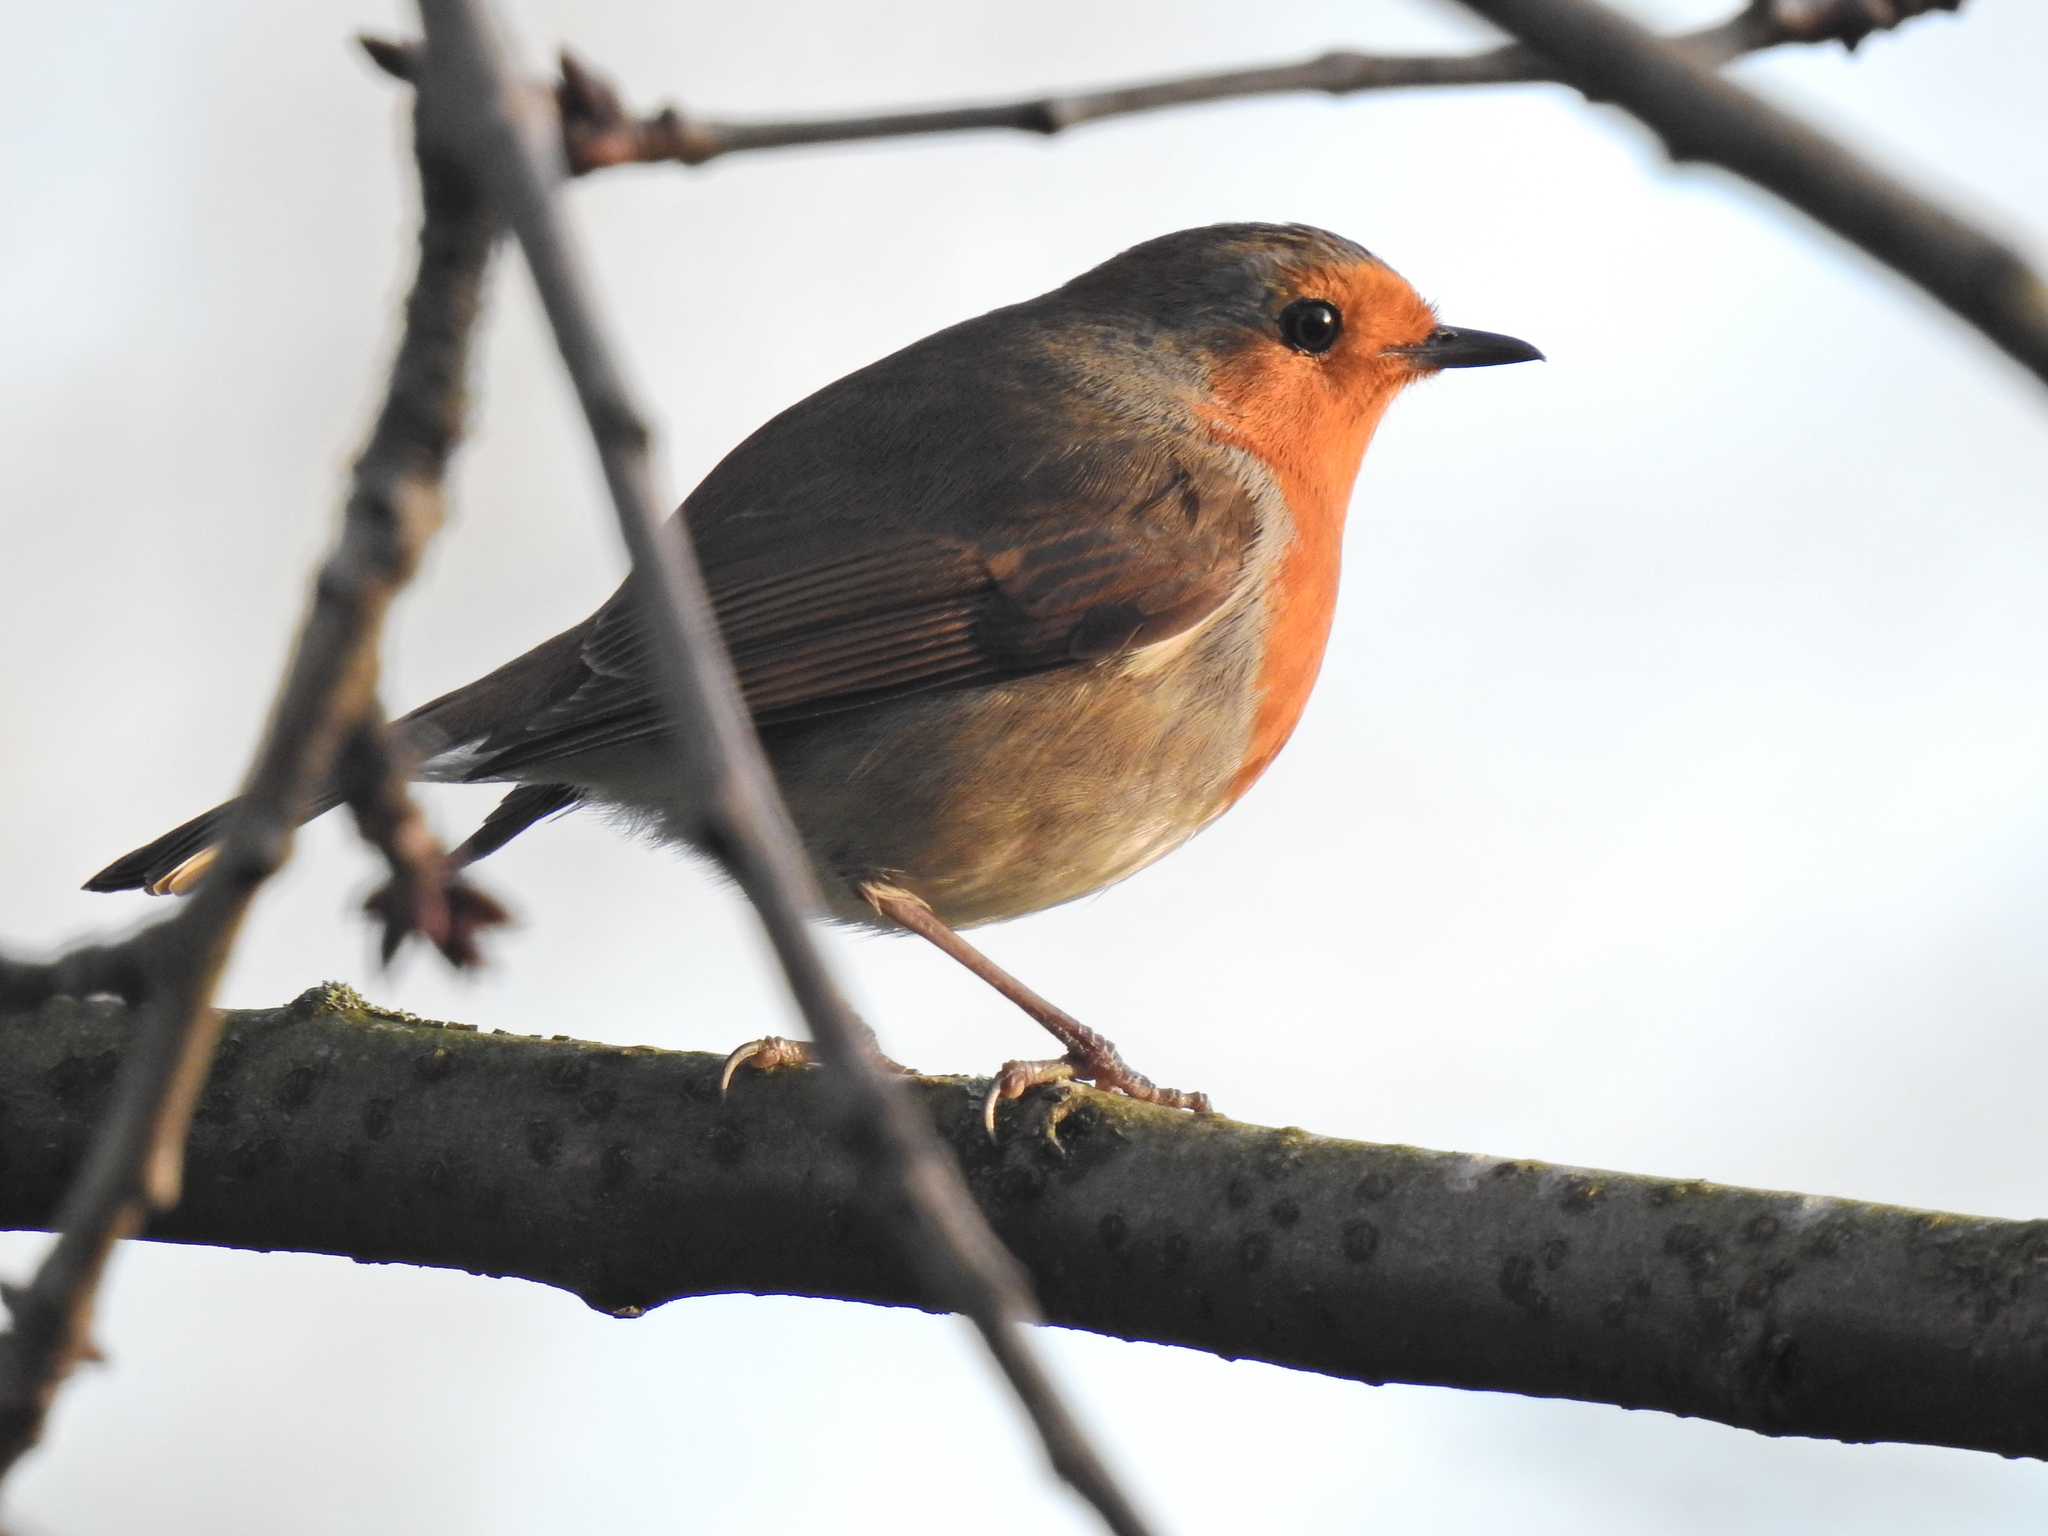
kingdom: Animalia
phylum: Chordata
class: Aves
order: Passeriformes
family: Muscicapidae
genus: Erithacus
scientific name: Erithacus rubecula
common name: European robin
